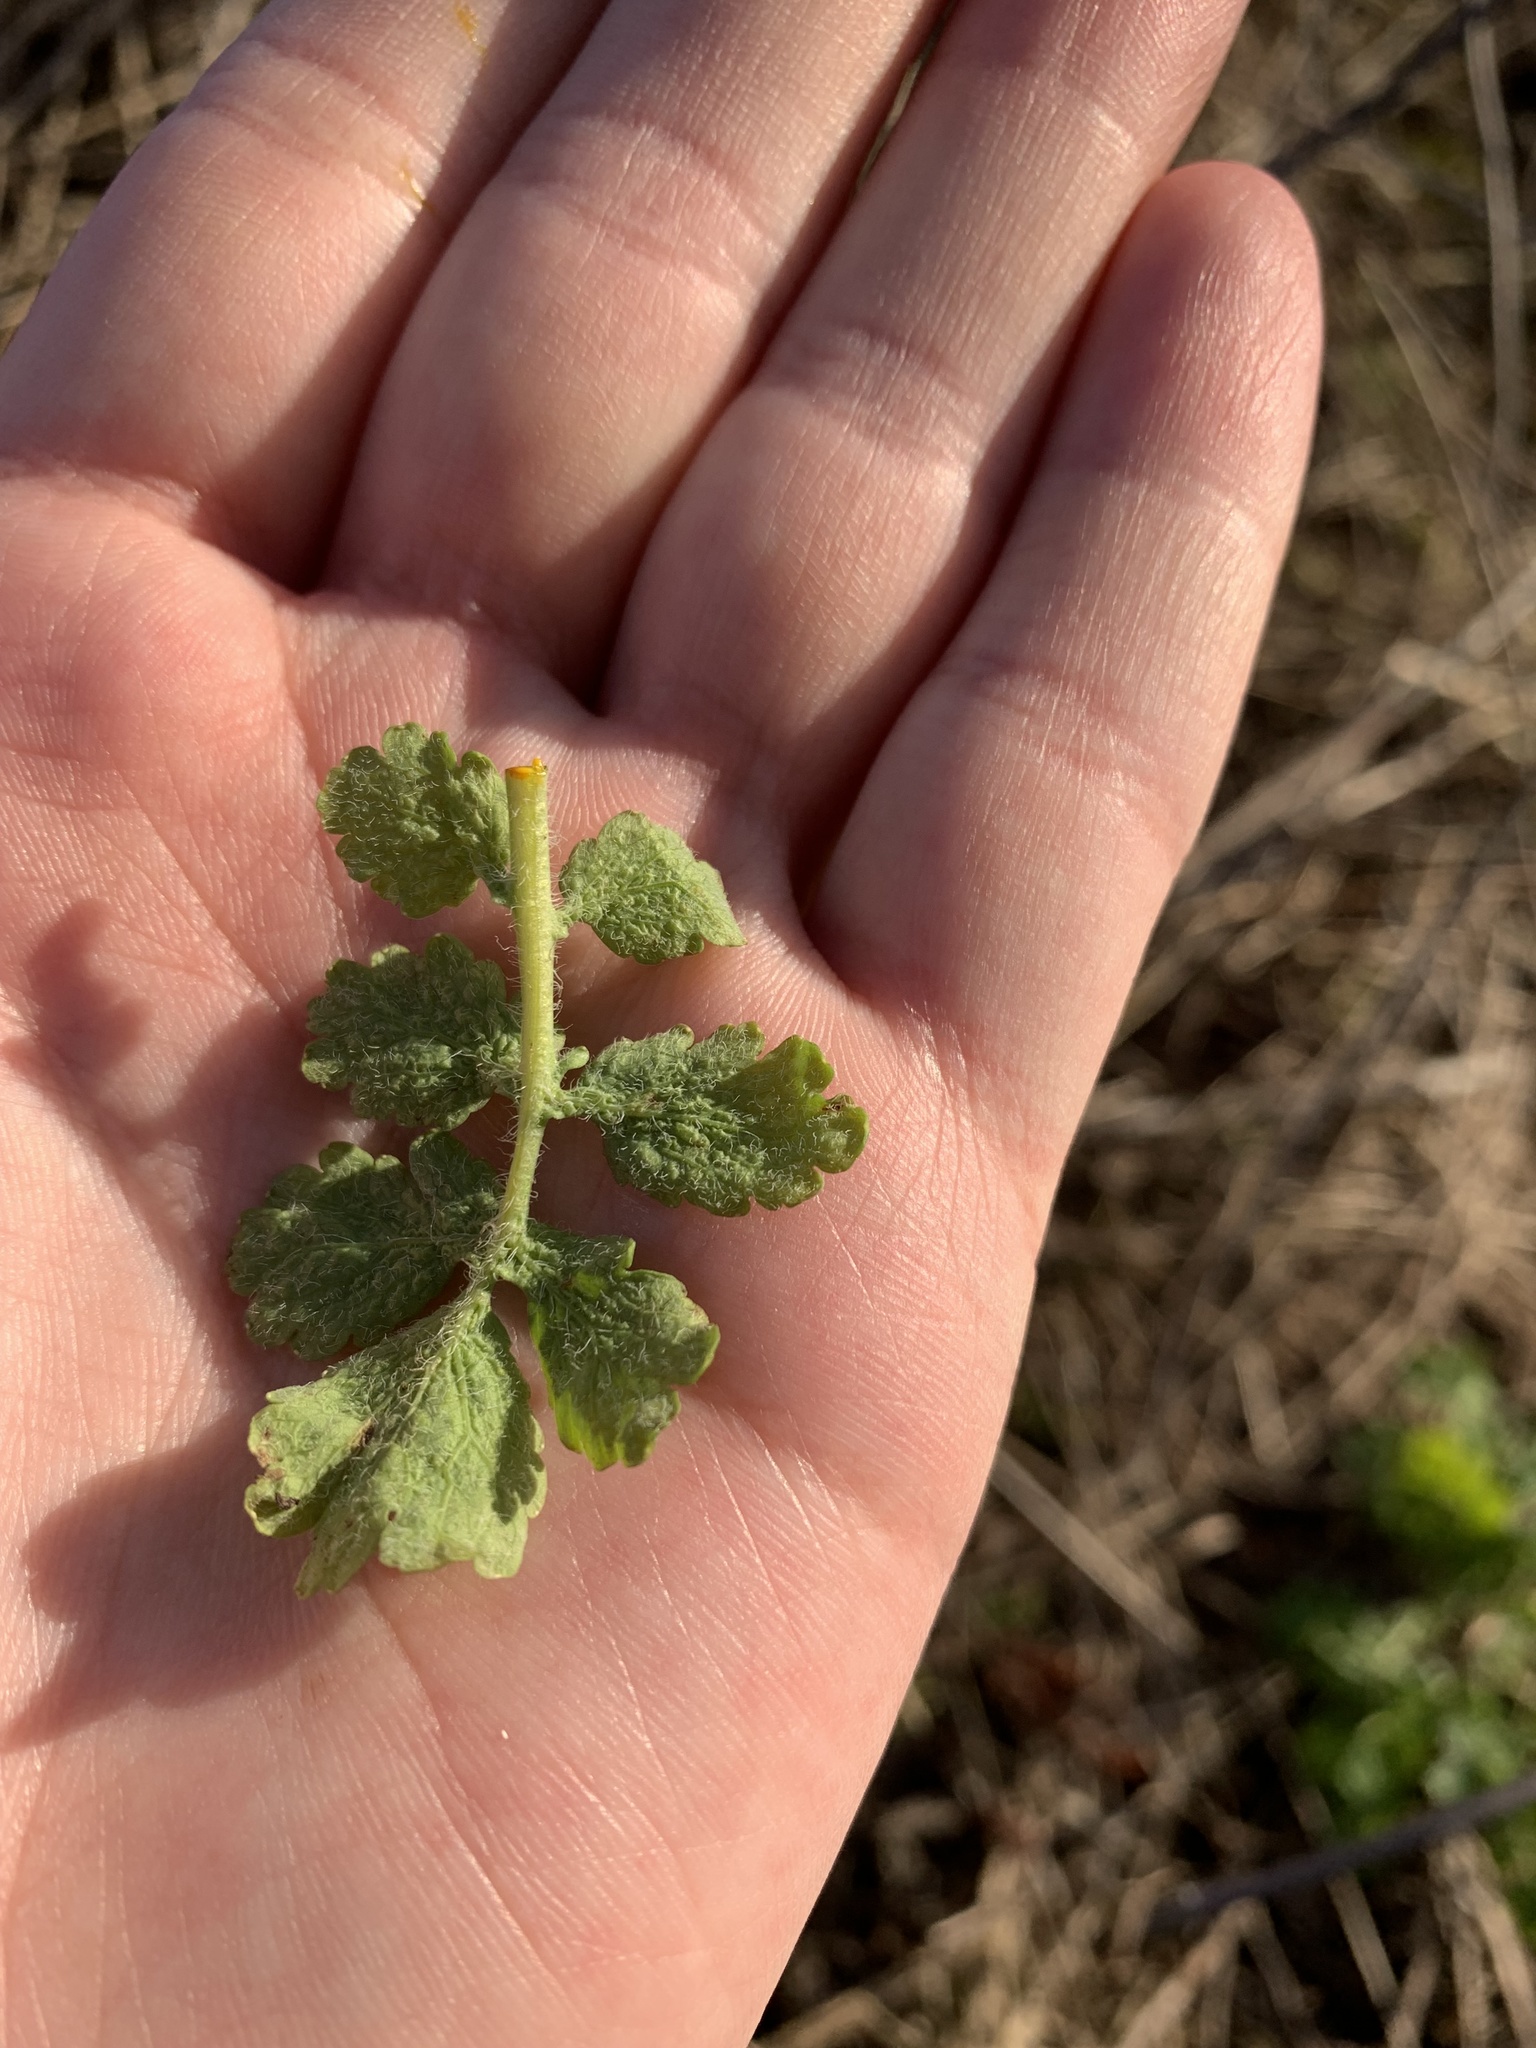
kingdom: Plantae
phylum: Tracheophyta
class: Magnoliopsida
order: Ranunculales
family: Papaveraceae
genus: Chelidonium
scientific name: Chelidonium majus
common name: Greater celandine
